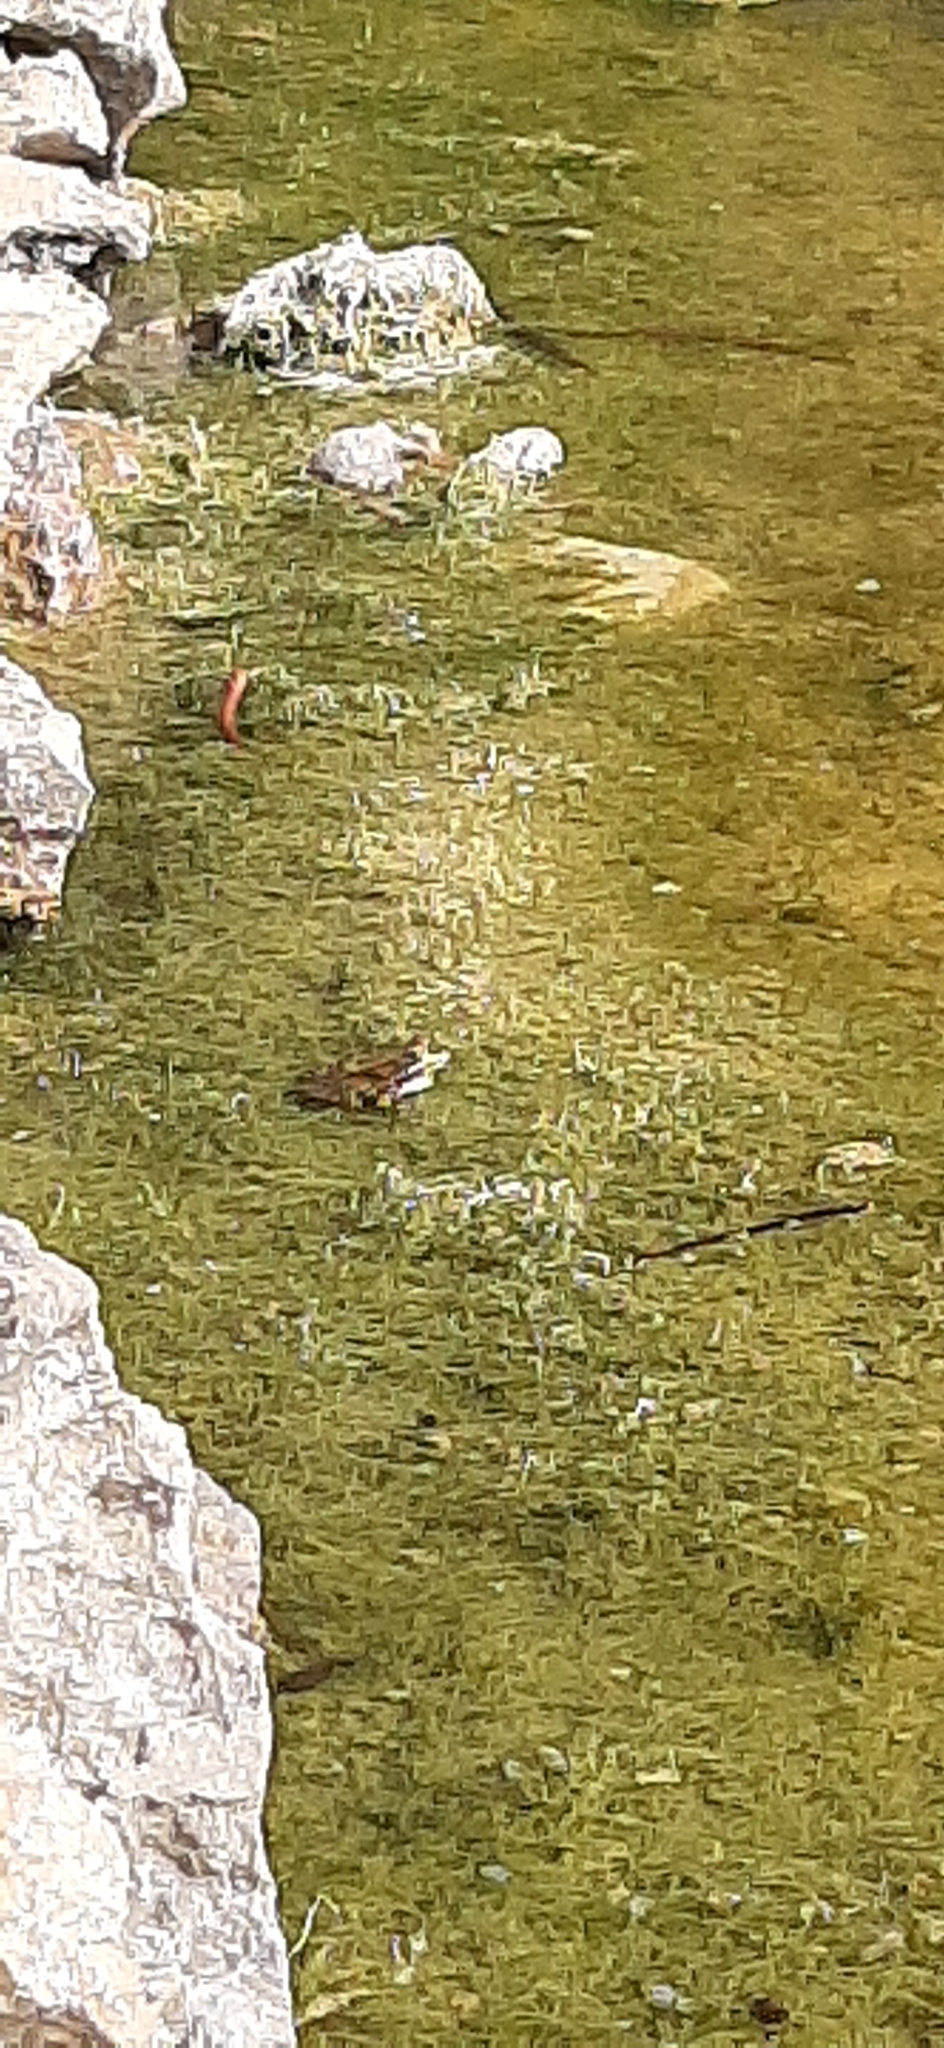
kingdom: Animalia
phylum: Chordata
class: Amphibia
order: Anura
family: Ranidae
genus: Pelophylax
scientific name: Pelophylax perezi
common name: Perez's frog
